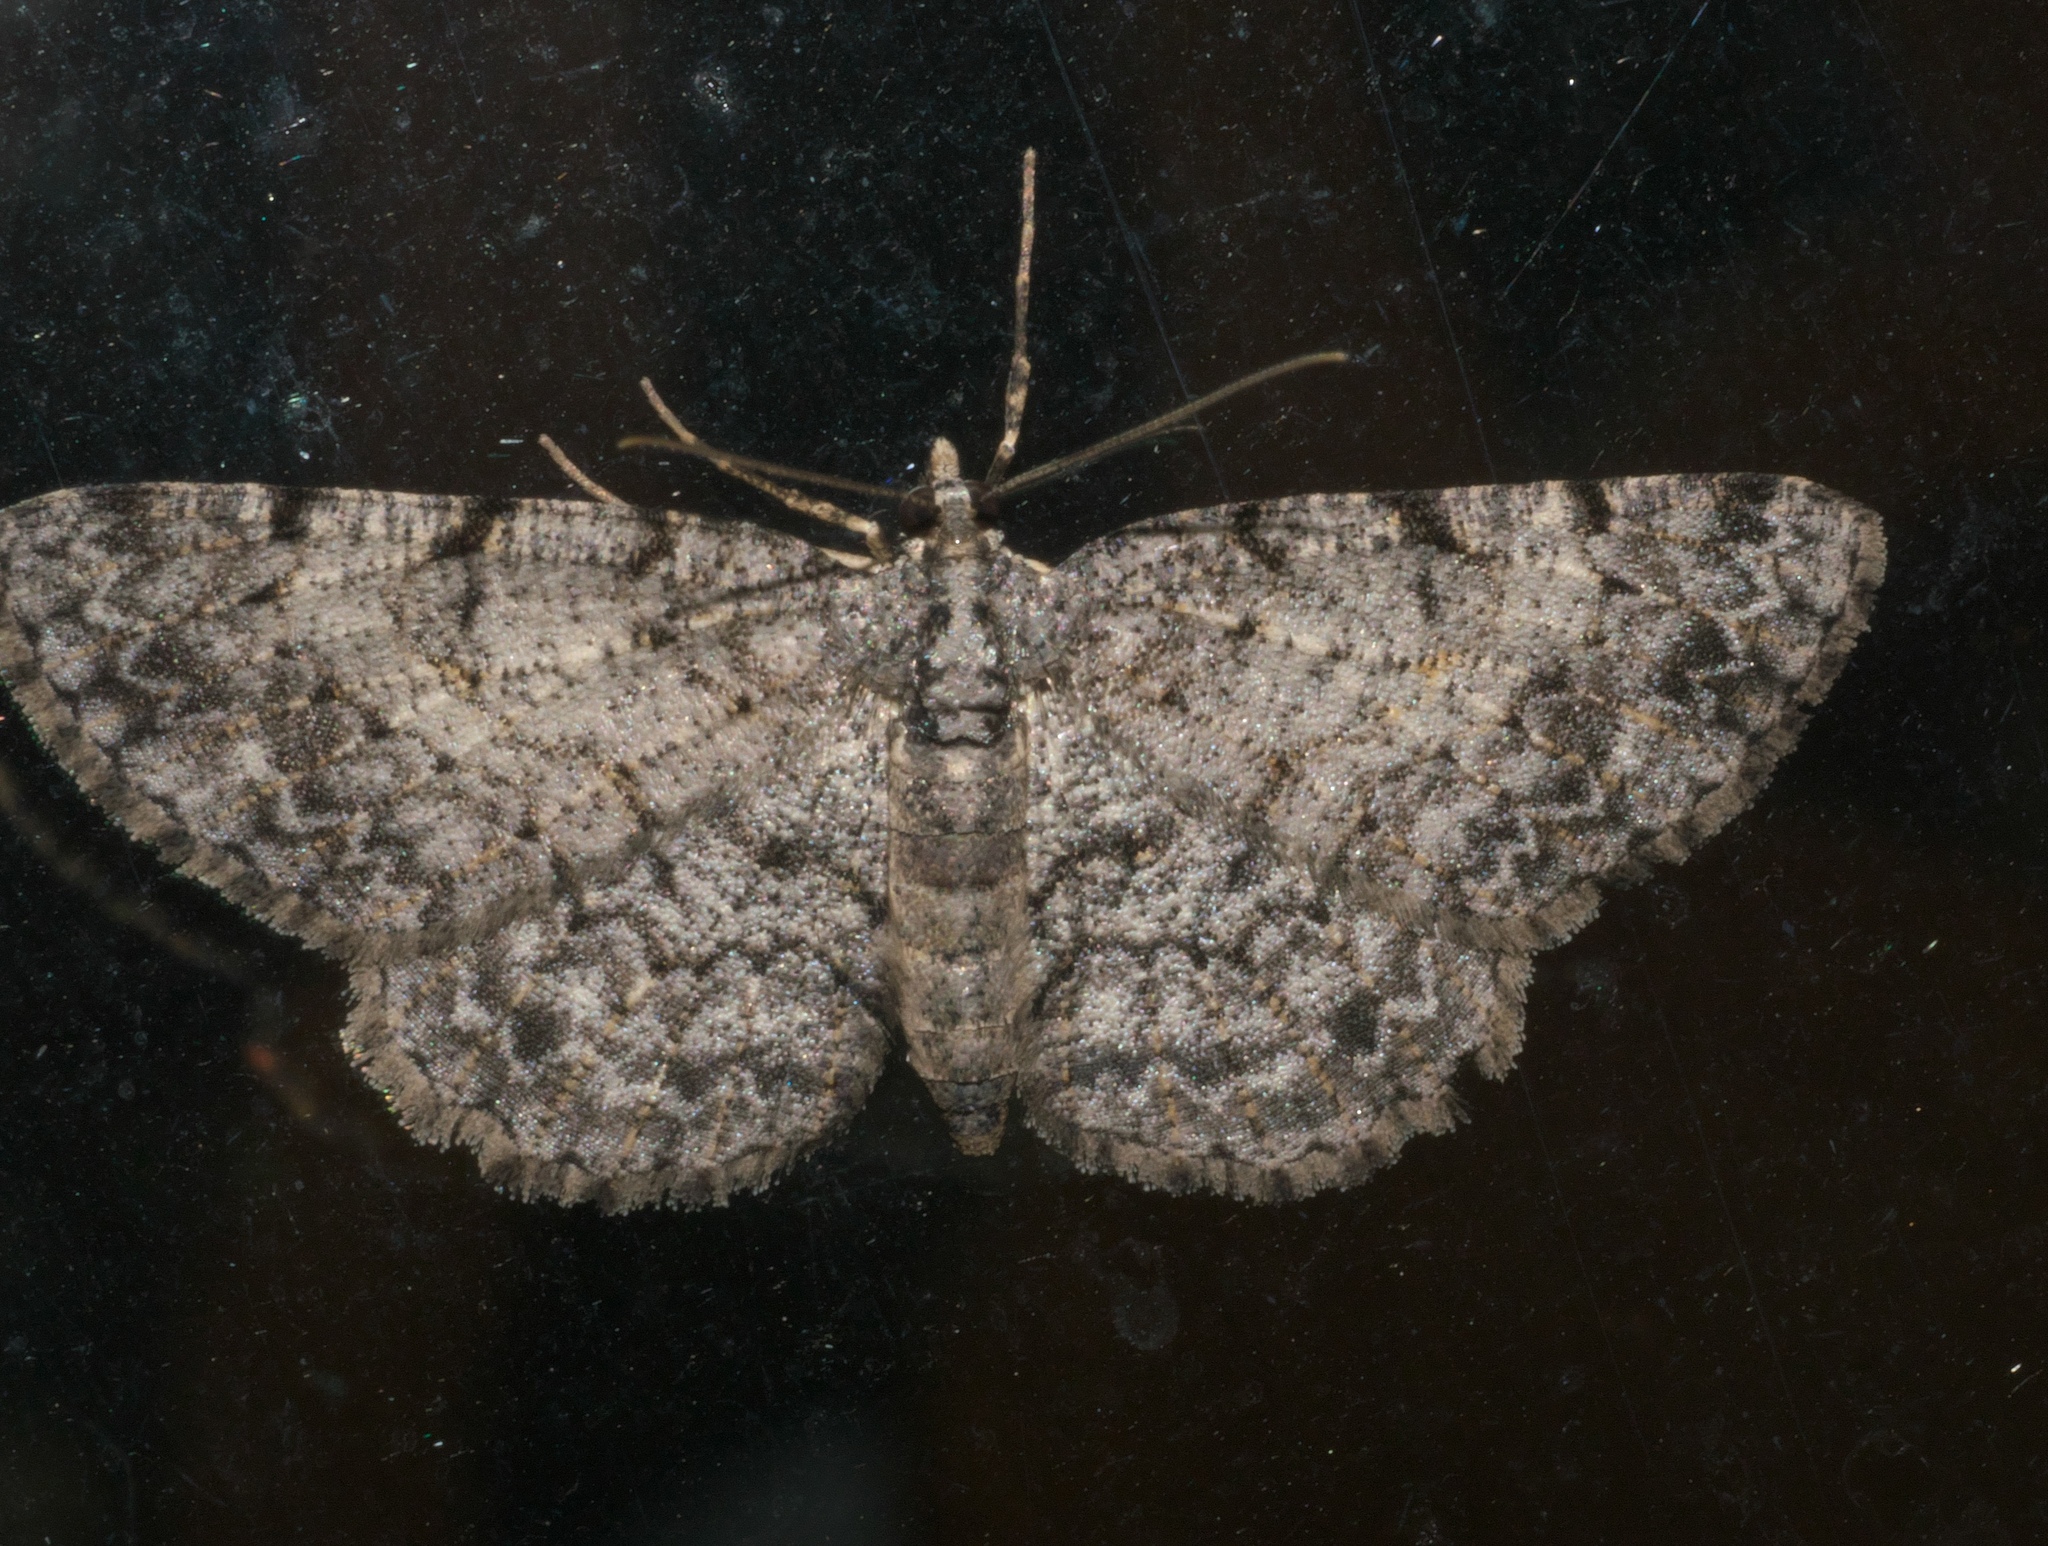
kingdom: Animalia
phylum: Arthropoda
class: Insecta
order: Lepidoptera
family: Geometridae
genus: Protoboarmia
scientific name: Protoboarmia porcelaria
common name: Porcelain gray
